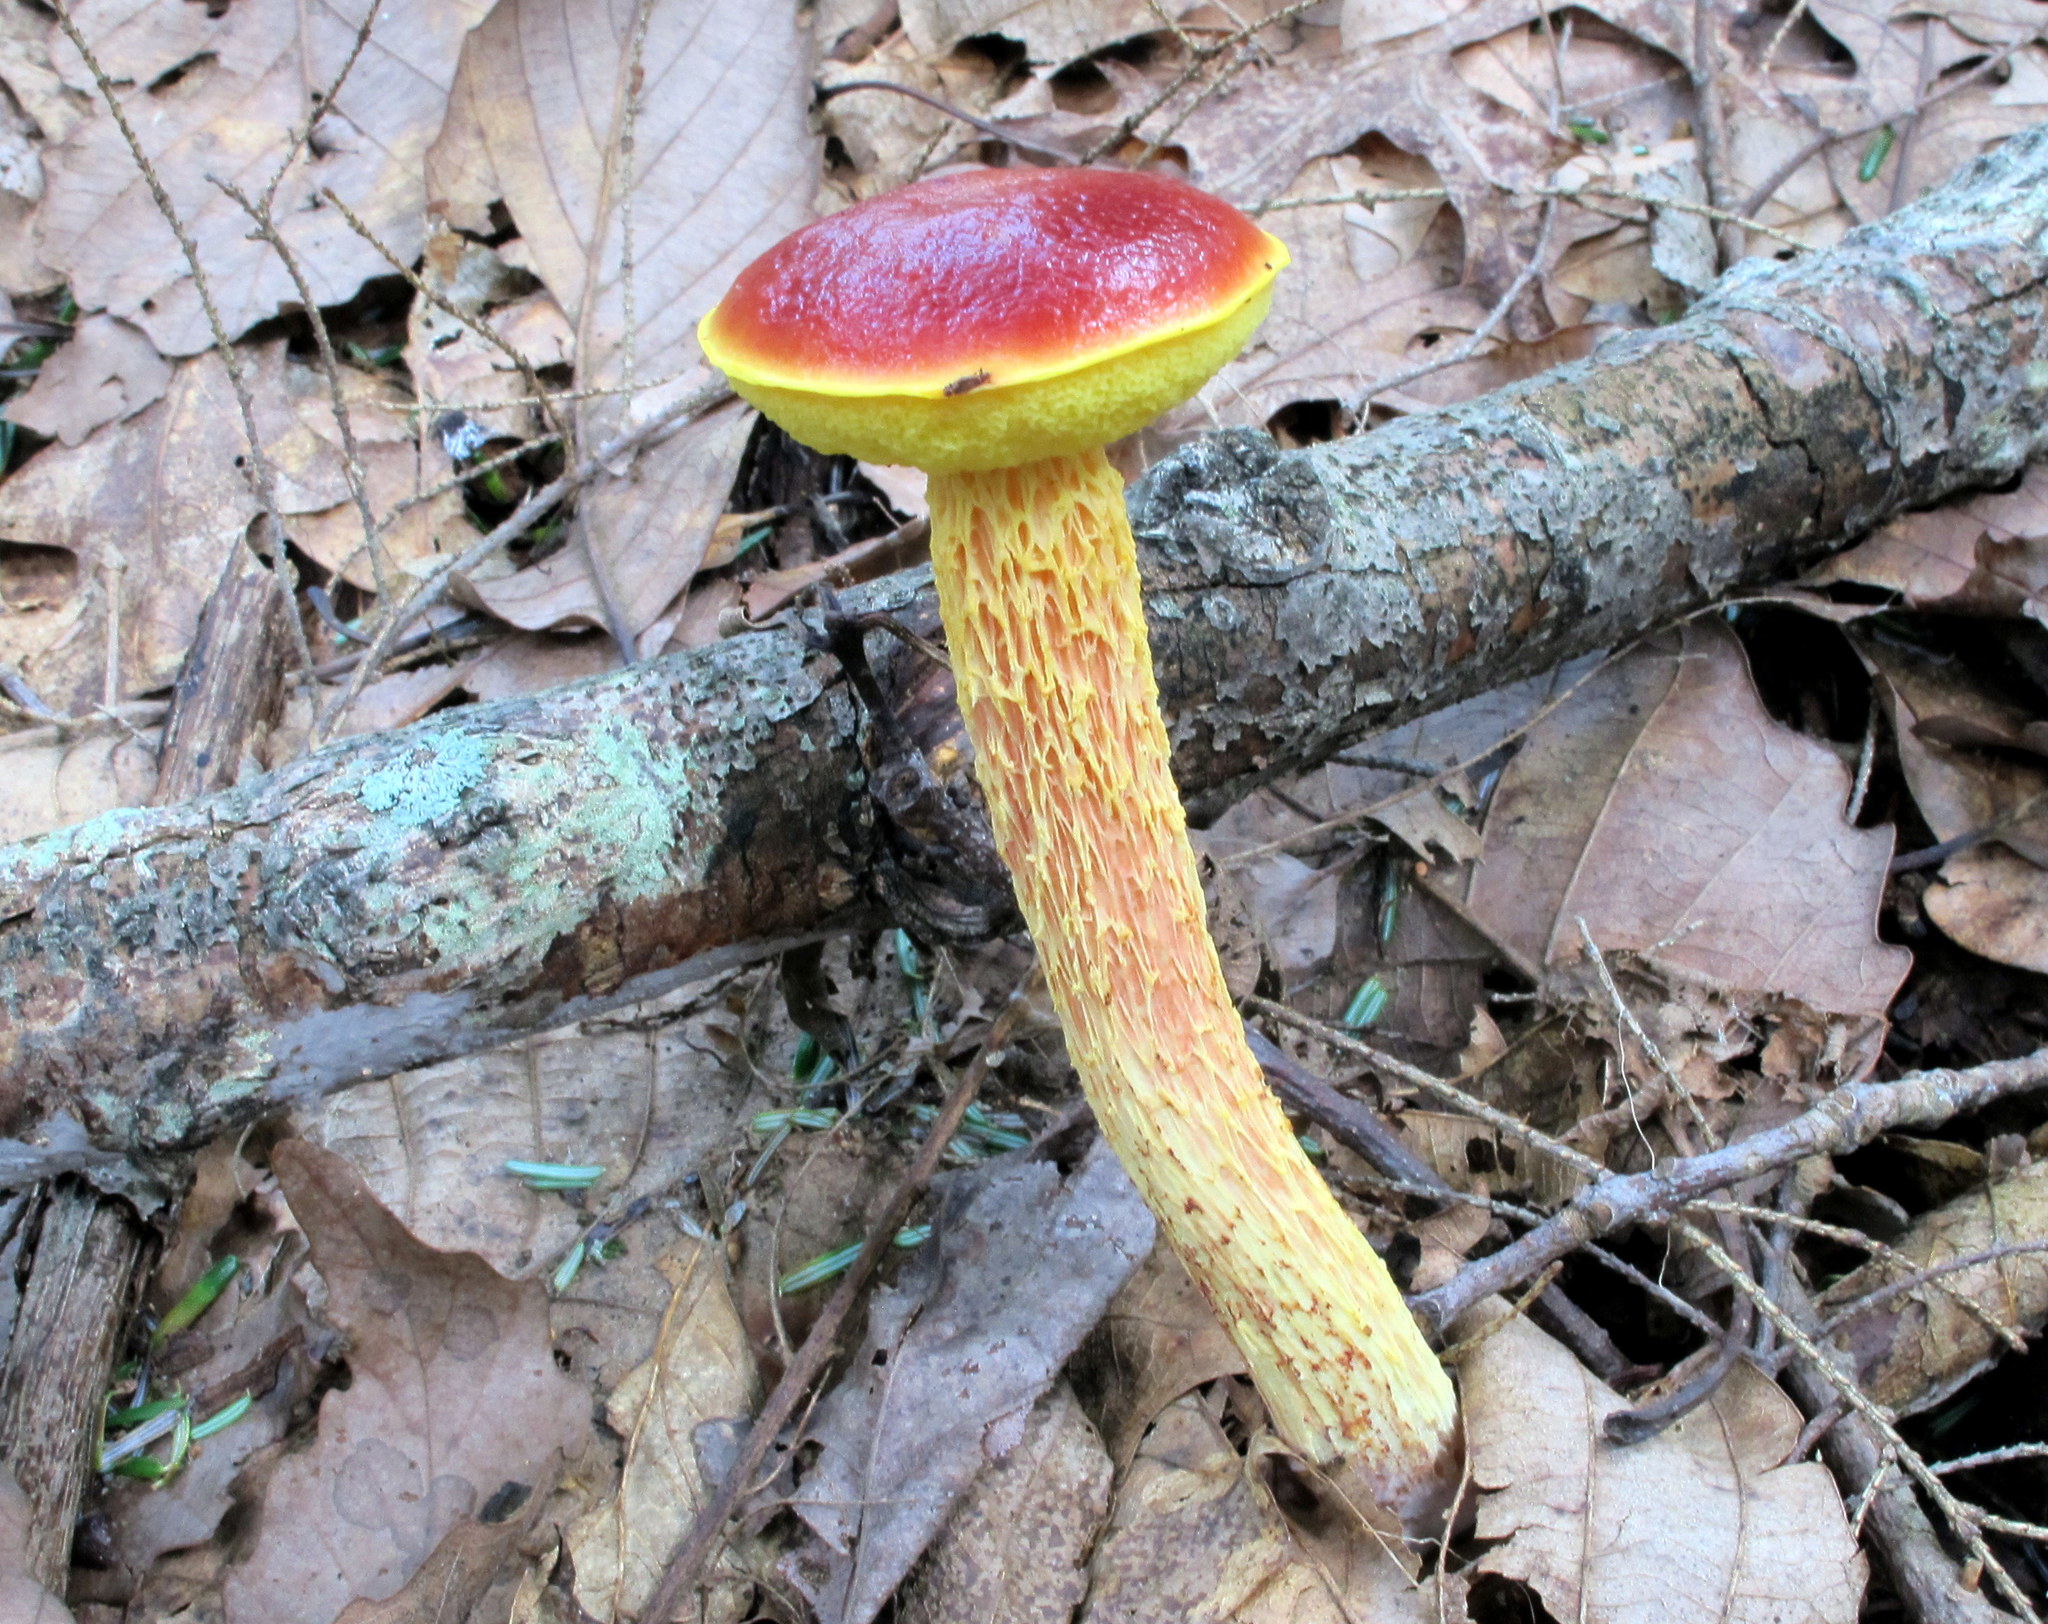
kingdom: Fungi
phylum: Basidiomycota
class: Agaricomycetes
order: Boletales
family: Boletaceae
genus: Aureoboletus
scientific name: Aureoboletus betula
